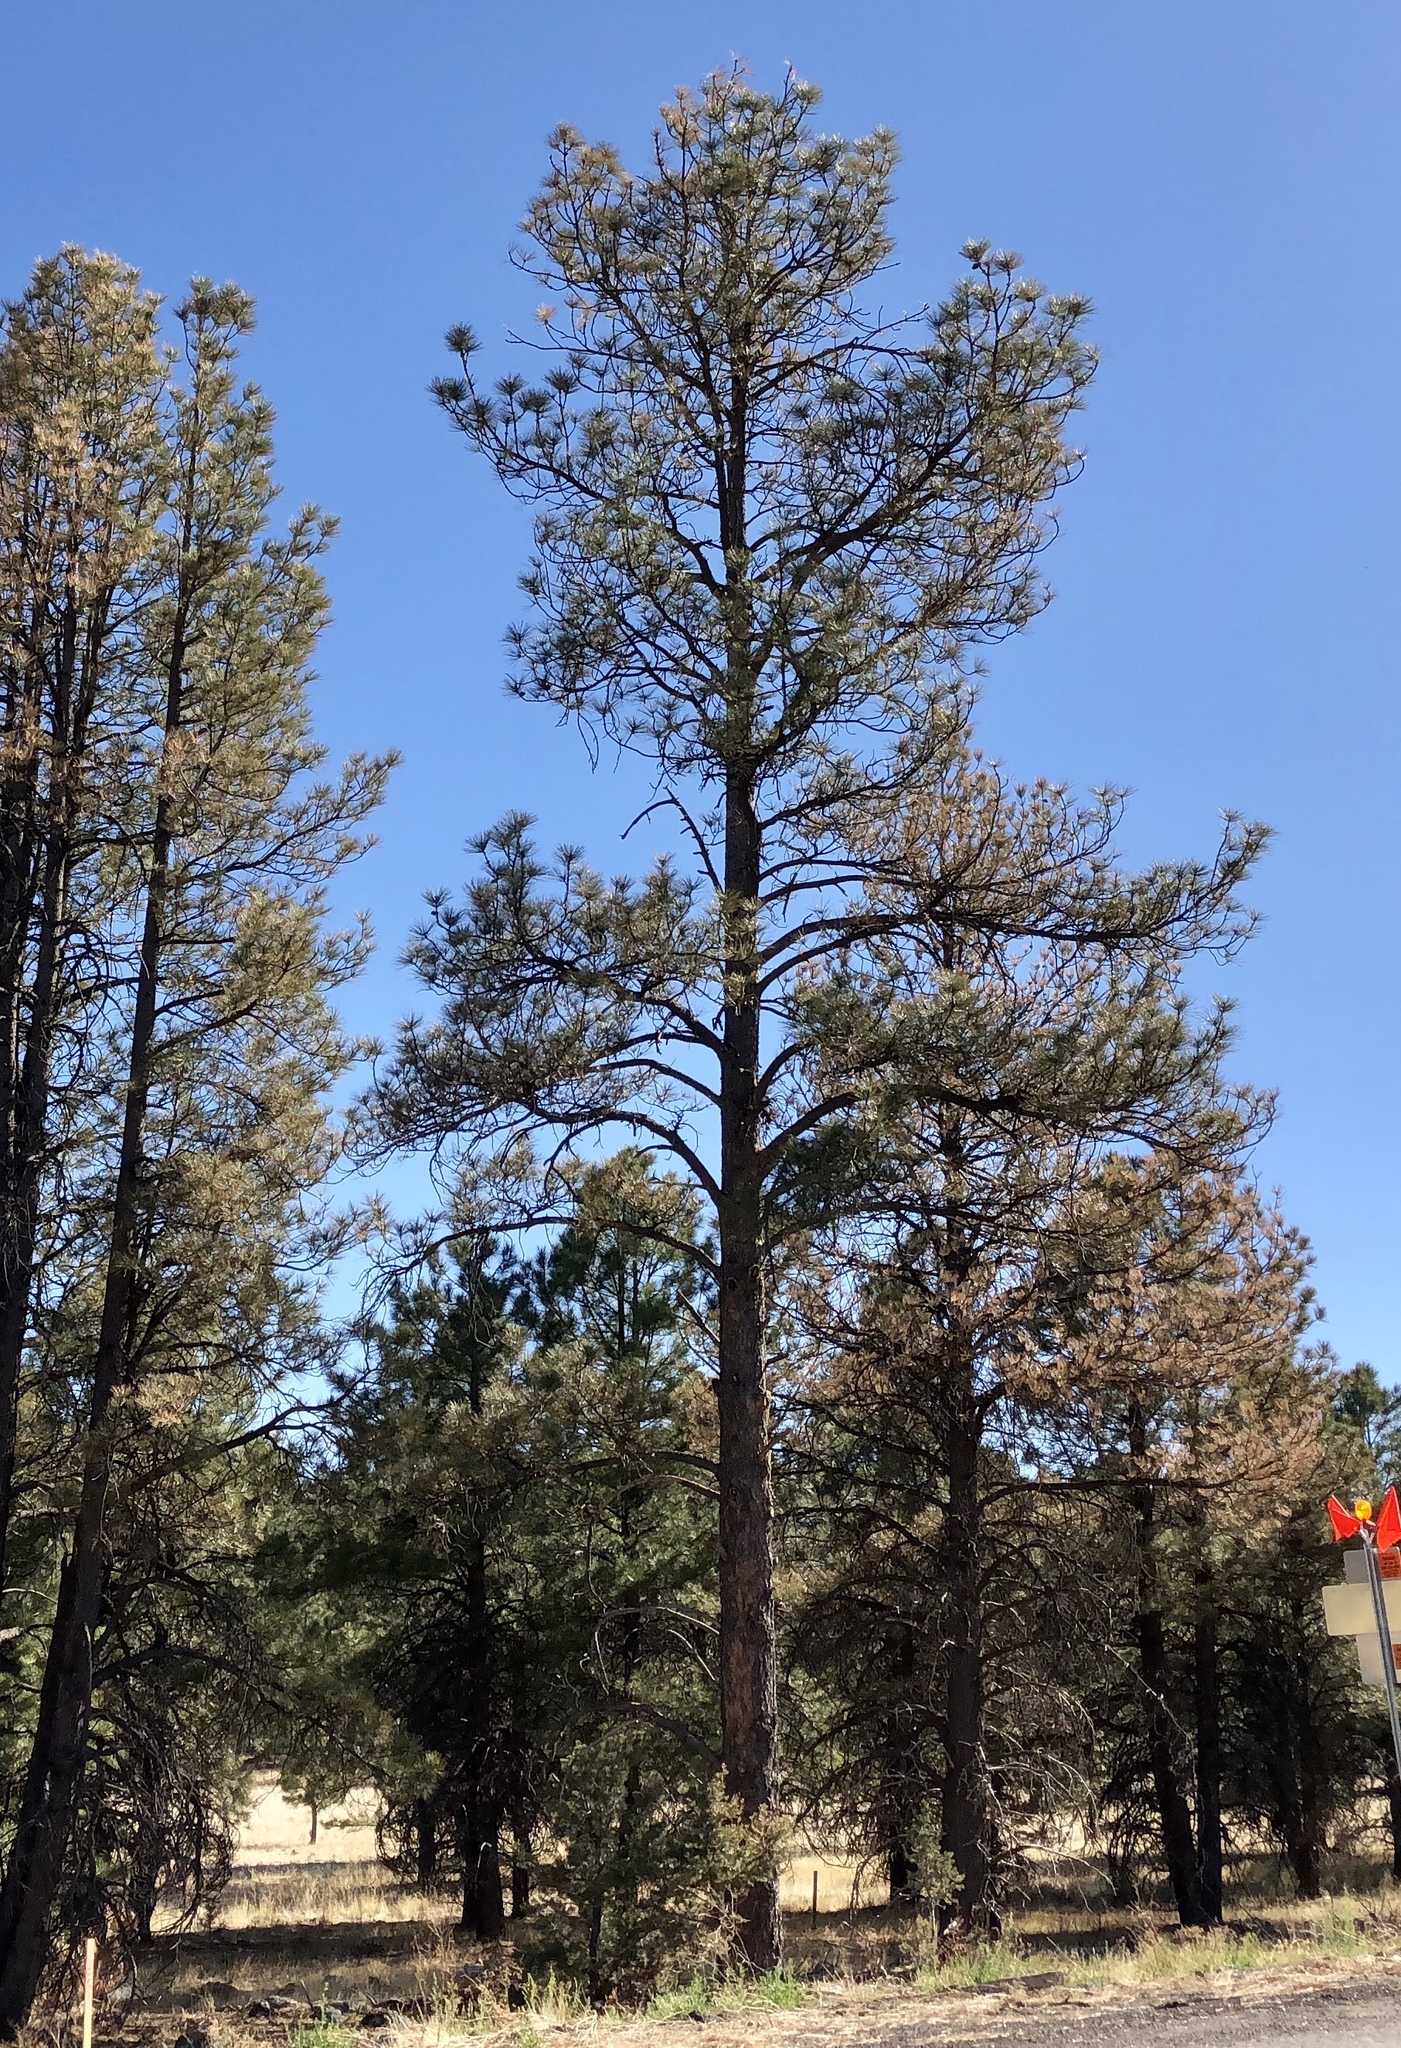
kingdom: Plantae
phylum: Tracheophyta
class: Pinopsida
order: Pinales
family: Pinaceae
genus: Pinus
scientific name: Pinus ponderosa
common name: Western yellow-pine
